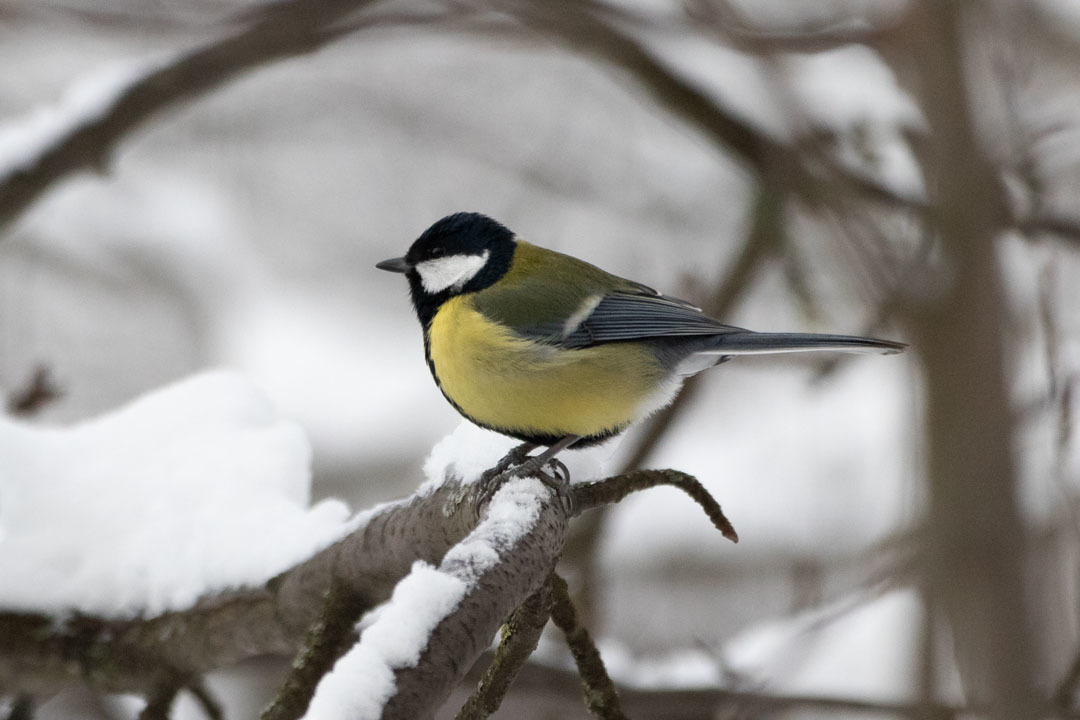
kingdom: Animalia
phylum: Chordata
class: Aves
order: Passeriformes
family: Paridae
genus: Parus
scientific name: Parus major
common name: Great tit
